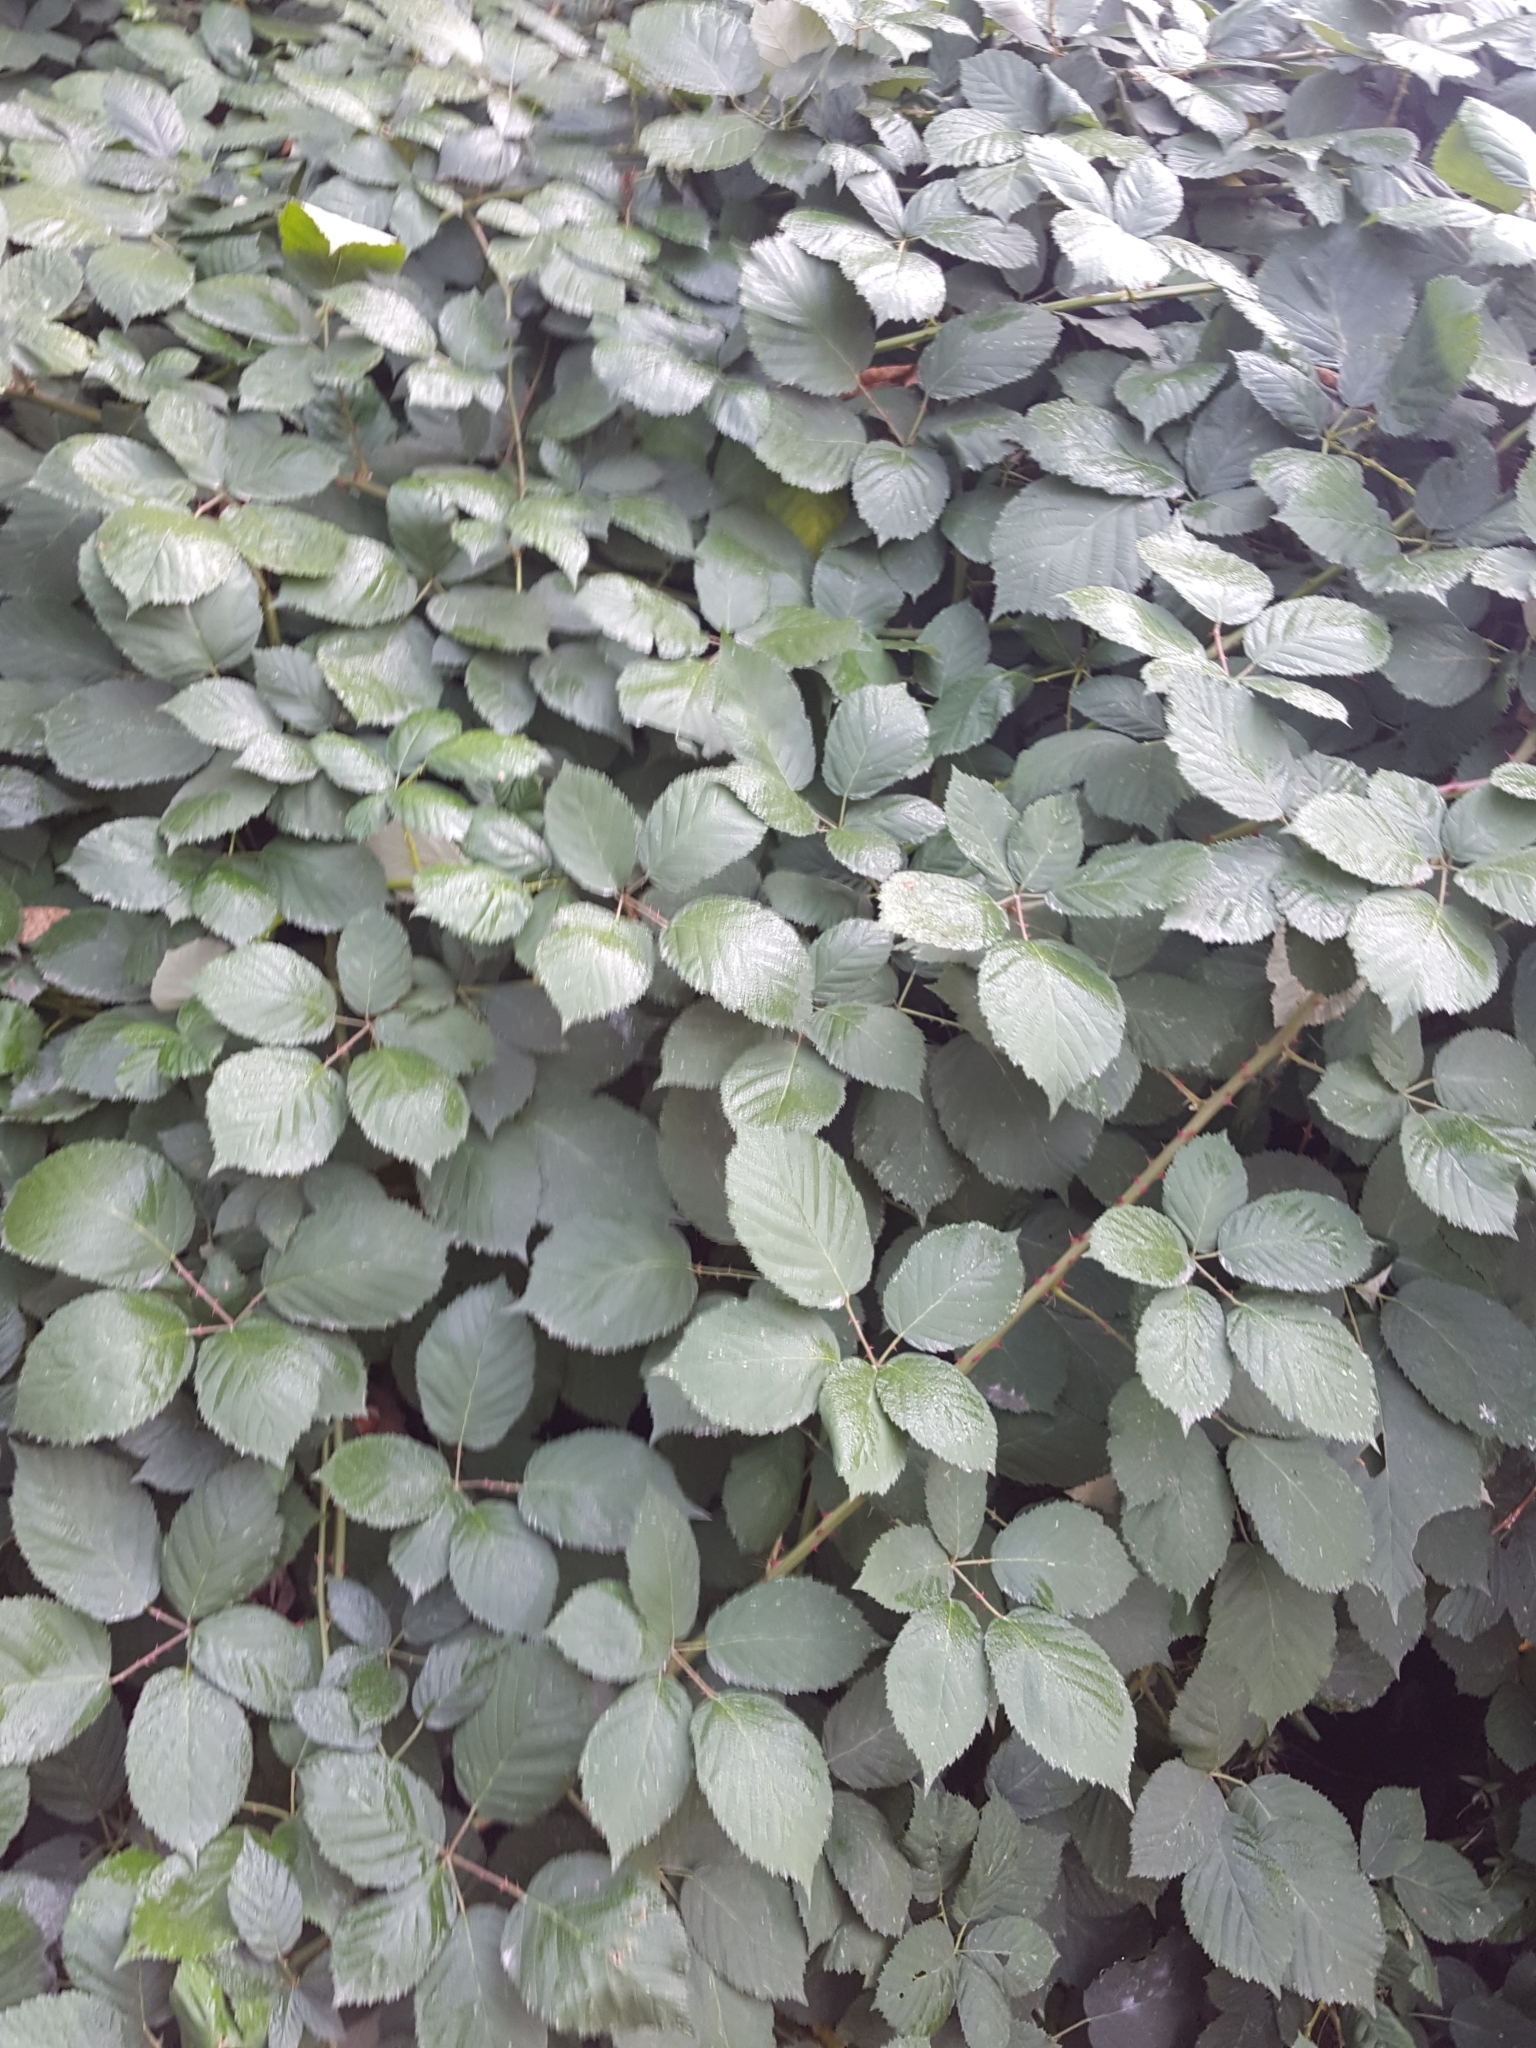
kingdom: Plantae
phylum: Tracheophyta
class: Magnoliopsida
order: Rosales
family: Rosaceae
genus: Rubus
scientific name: Rubus bifrons
